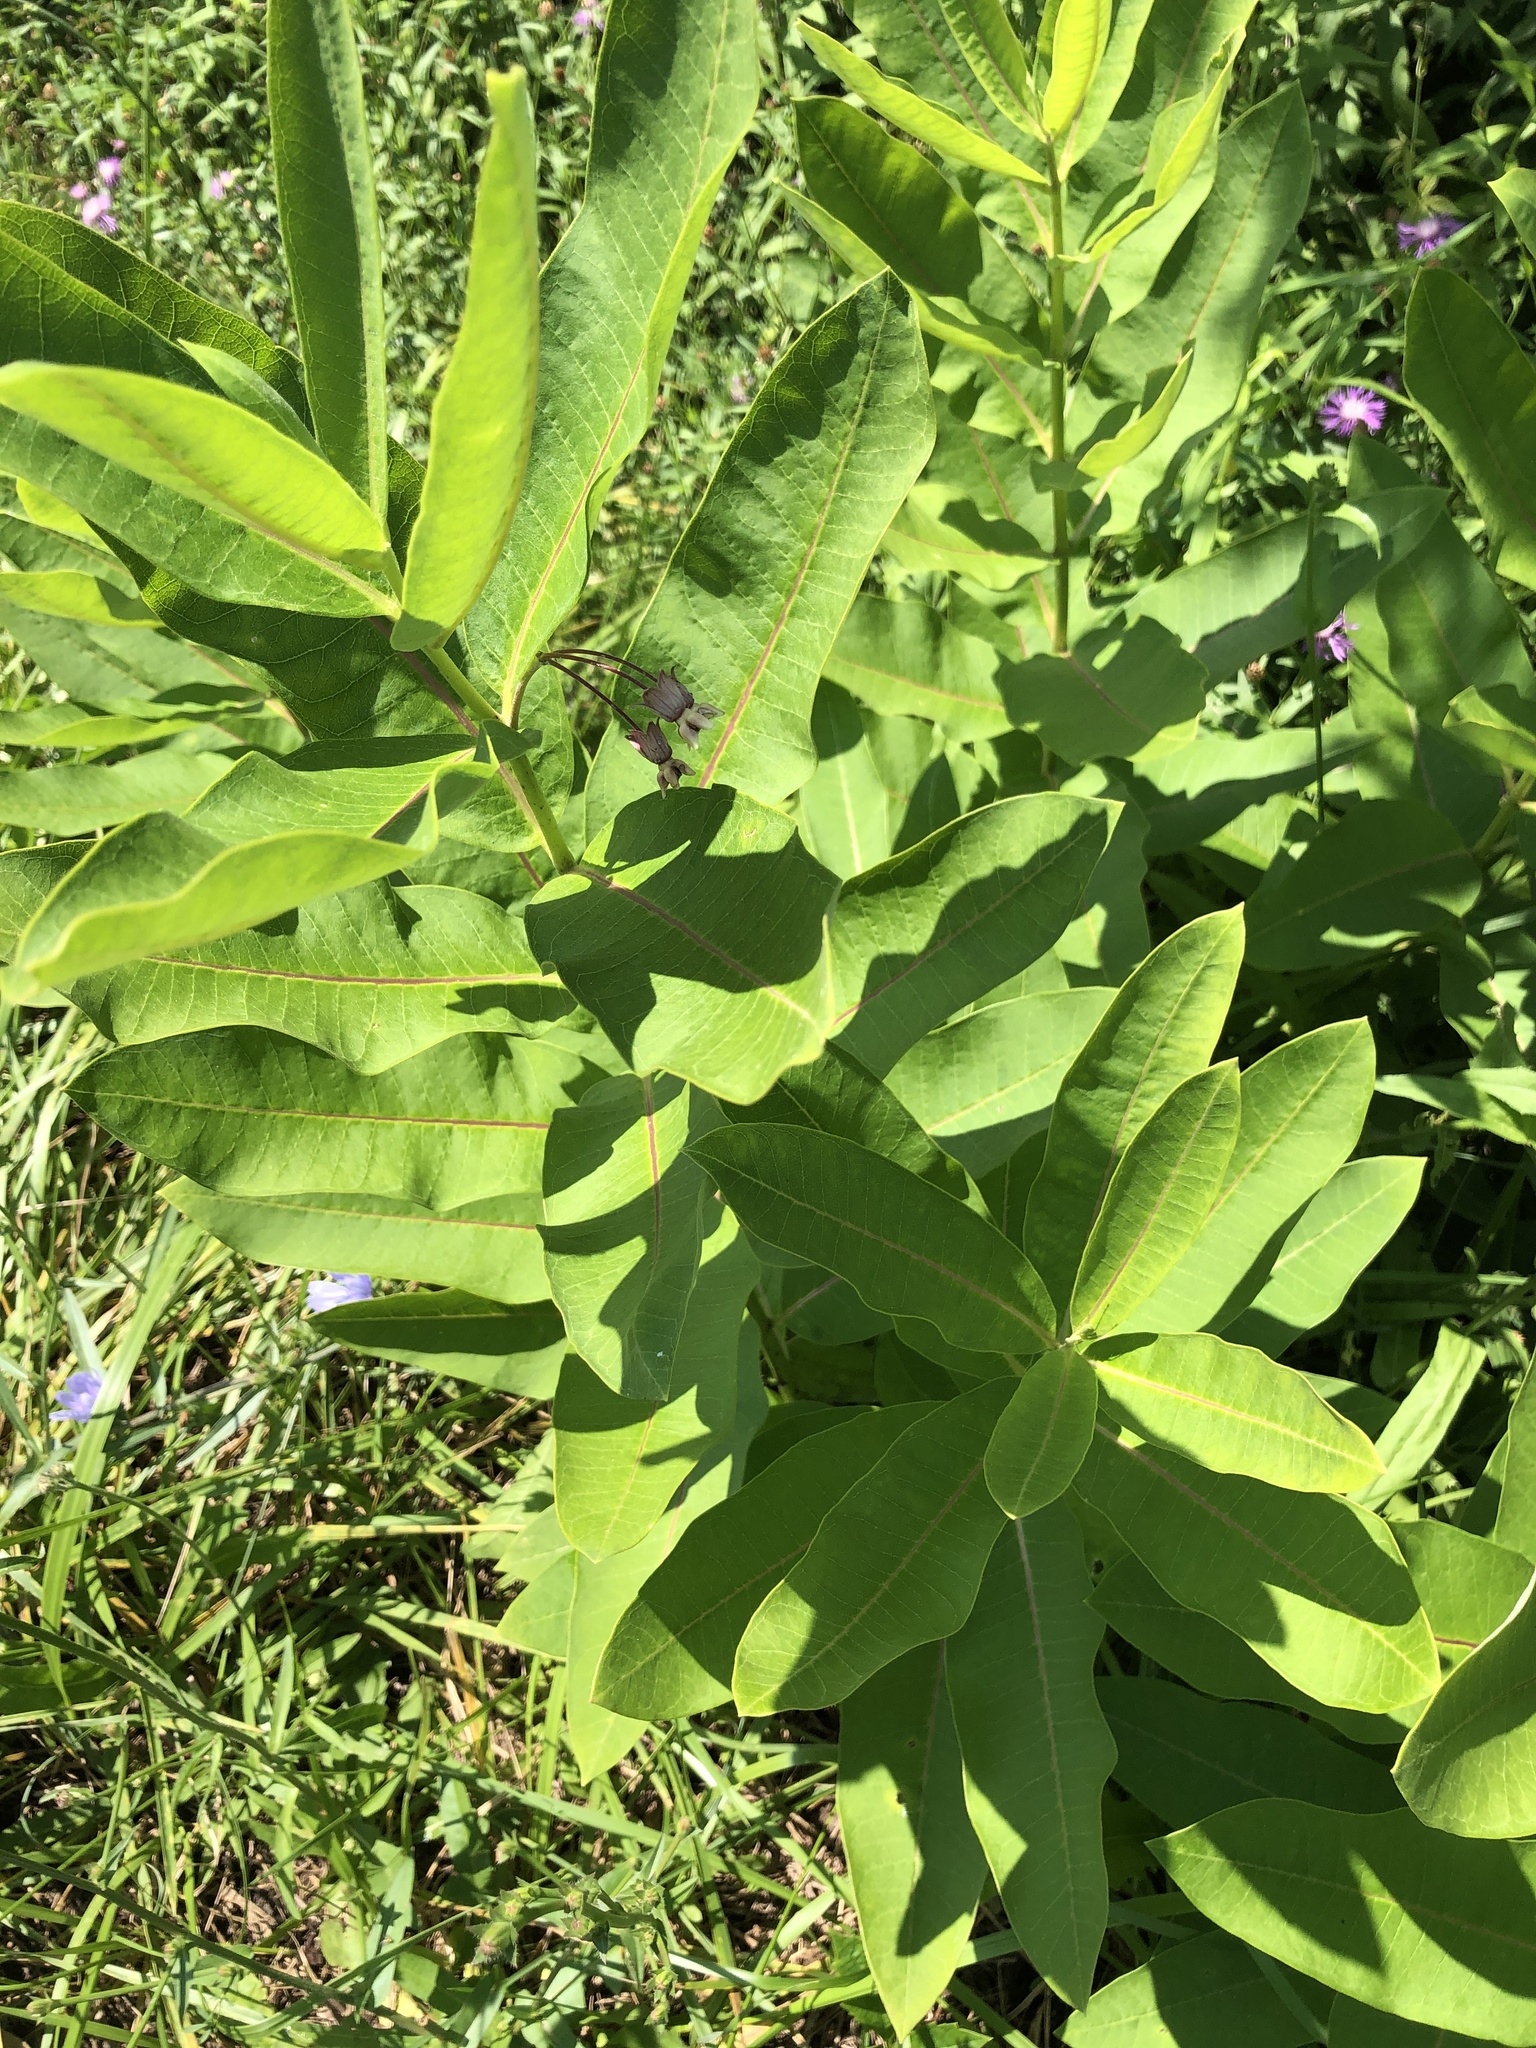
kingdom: Plantae
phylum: Tracheophyta
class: Magnoliopsida
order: Gentianales
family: Apocynaceae
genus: Asclepias
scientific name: Asclepias syriaca
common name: Common milkweed
